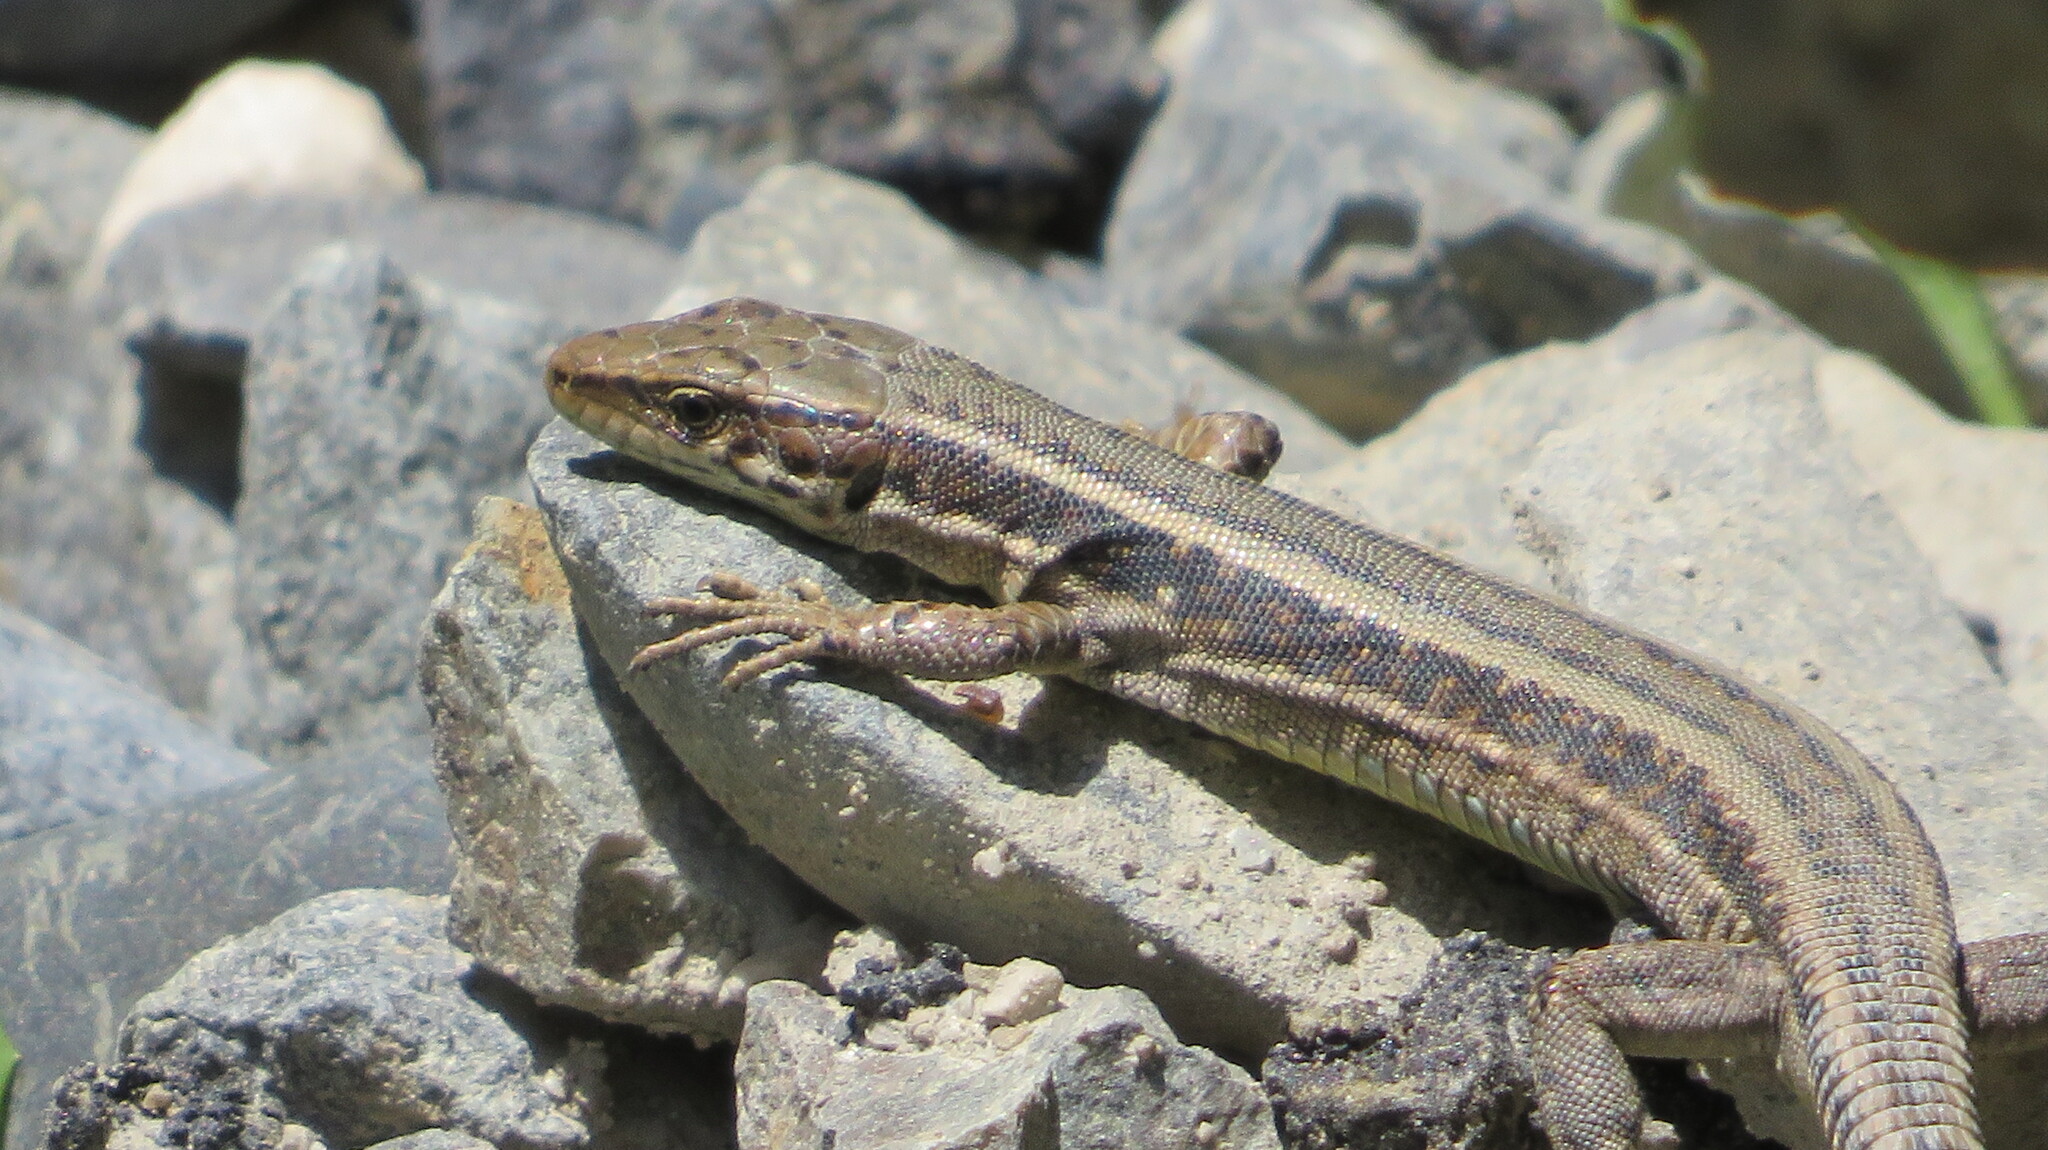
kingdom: Animalia
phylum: Chordata
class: Squamata
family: Lacertidae
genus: Darevskia
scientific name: Darevskia caucasica
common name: Caucasian llzard
